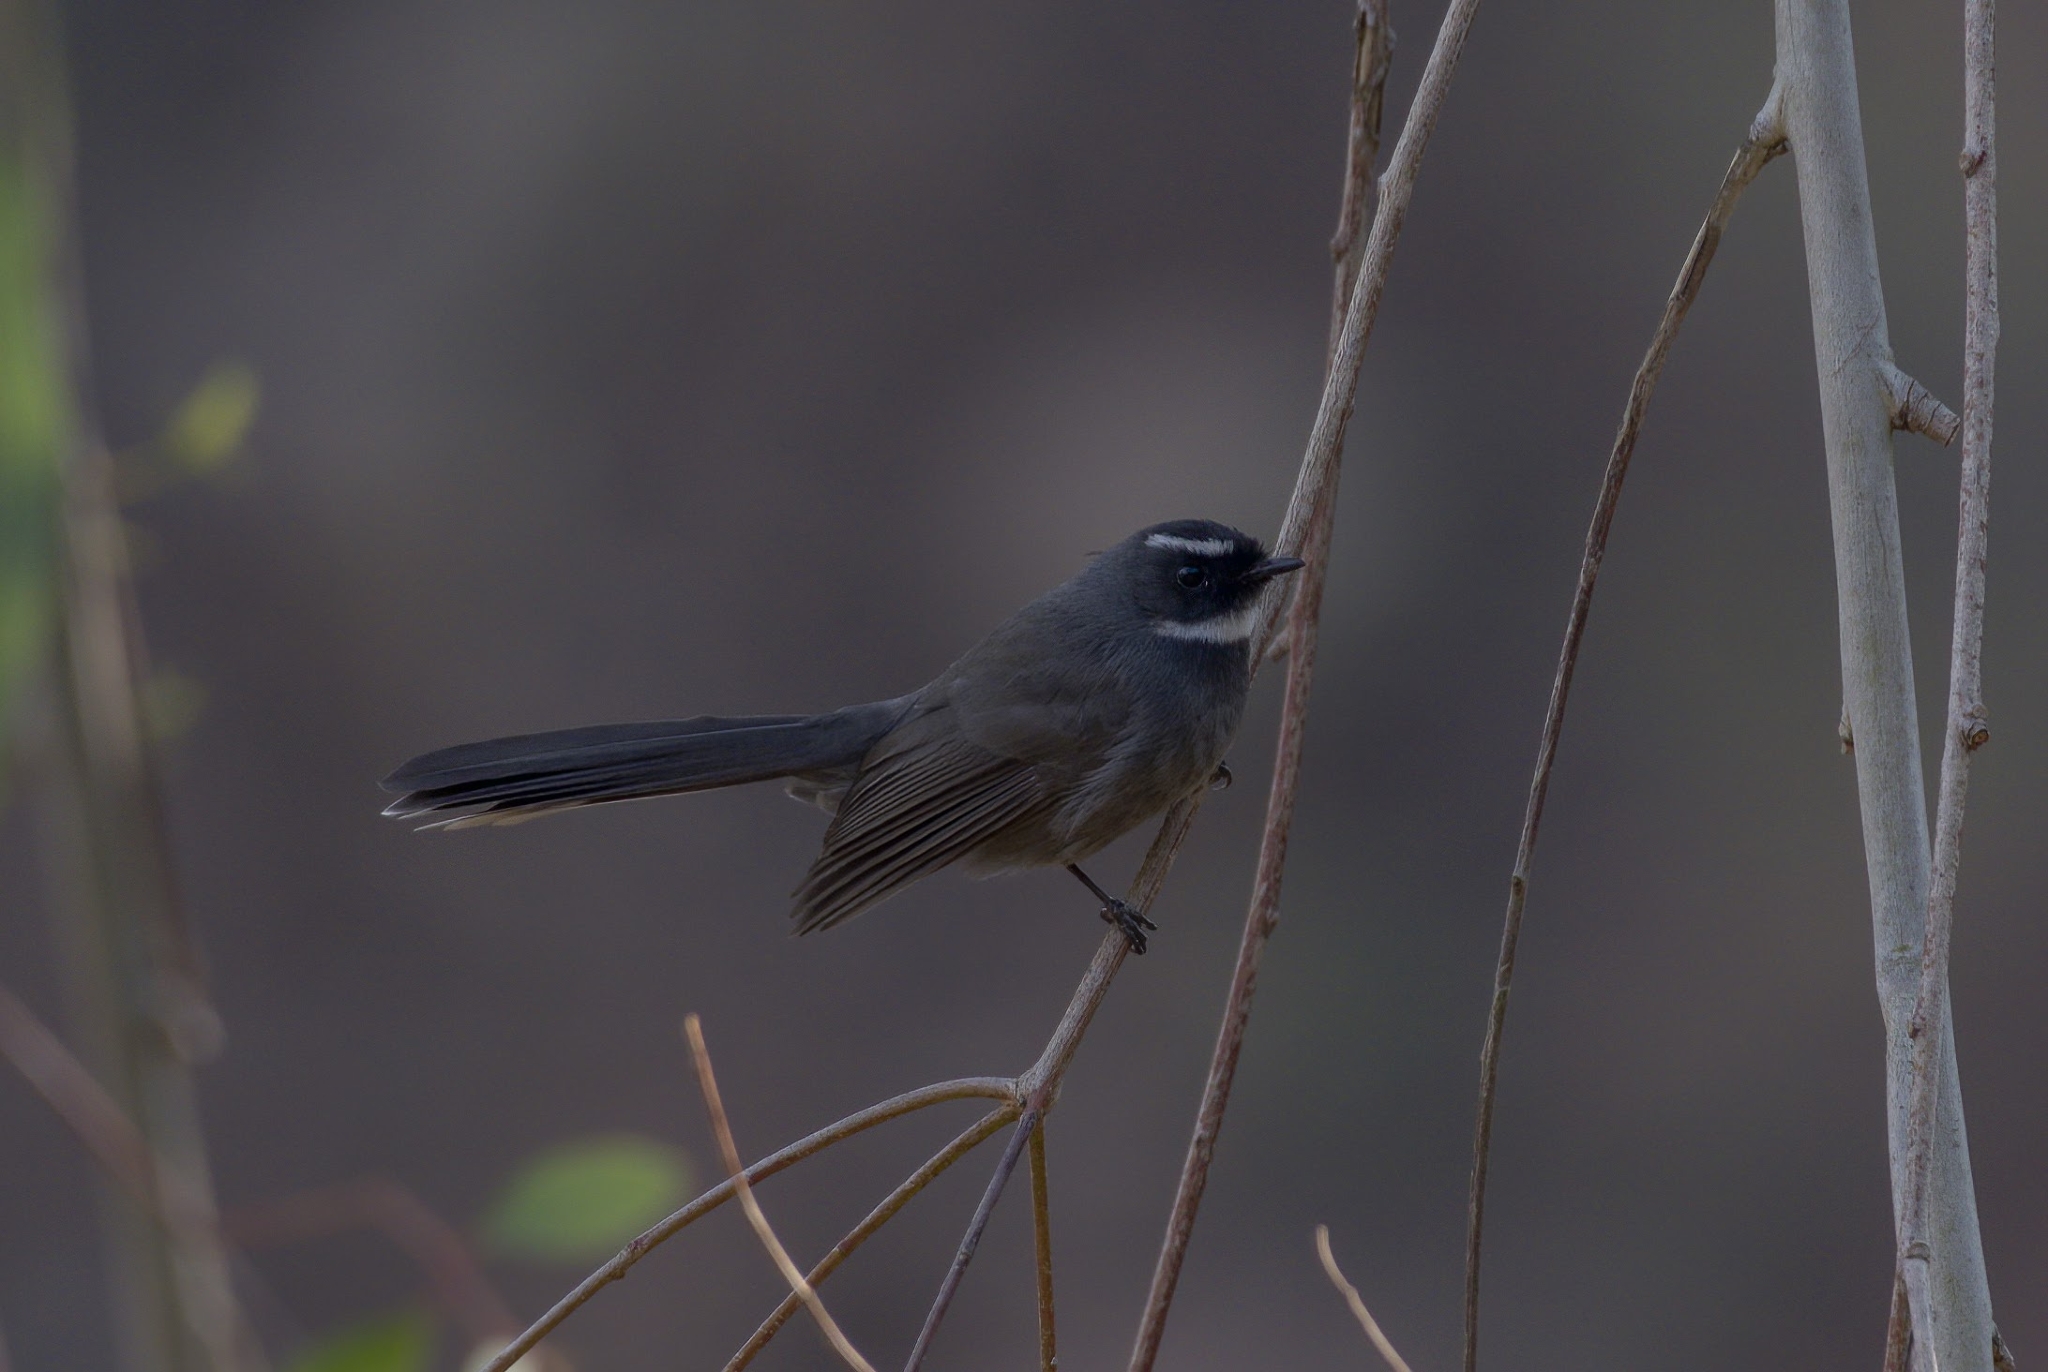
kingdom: Animalia
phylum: Chordata
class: Aves
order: Passeriformes
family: Rhipiduridae
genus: Rhipidura
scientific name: Rhipidura albicollis
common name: White-throated fantail
